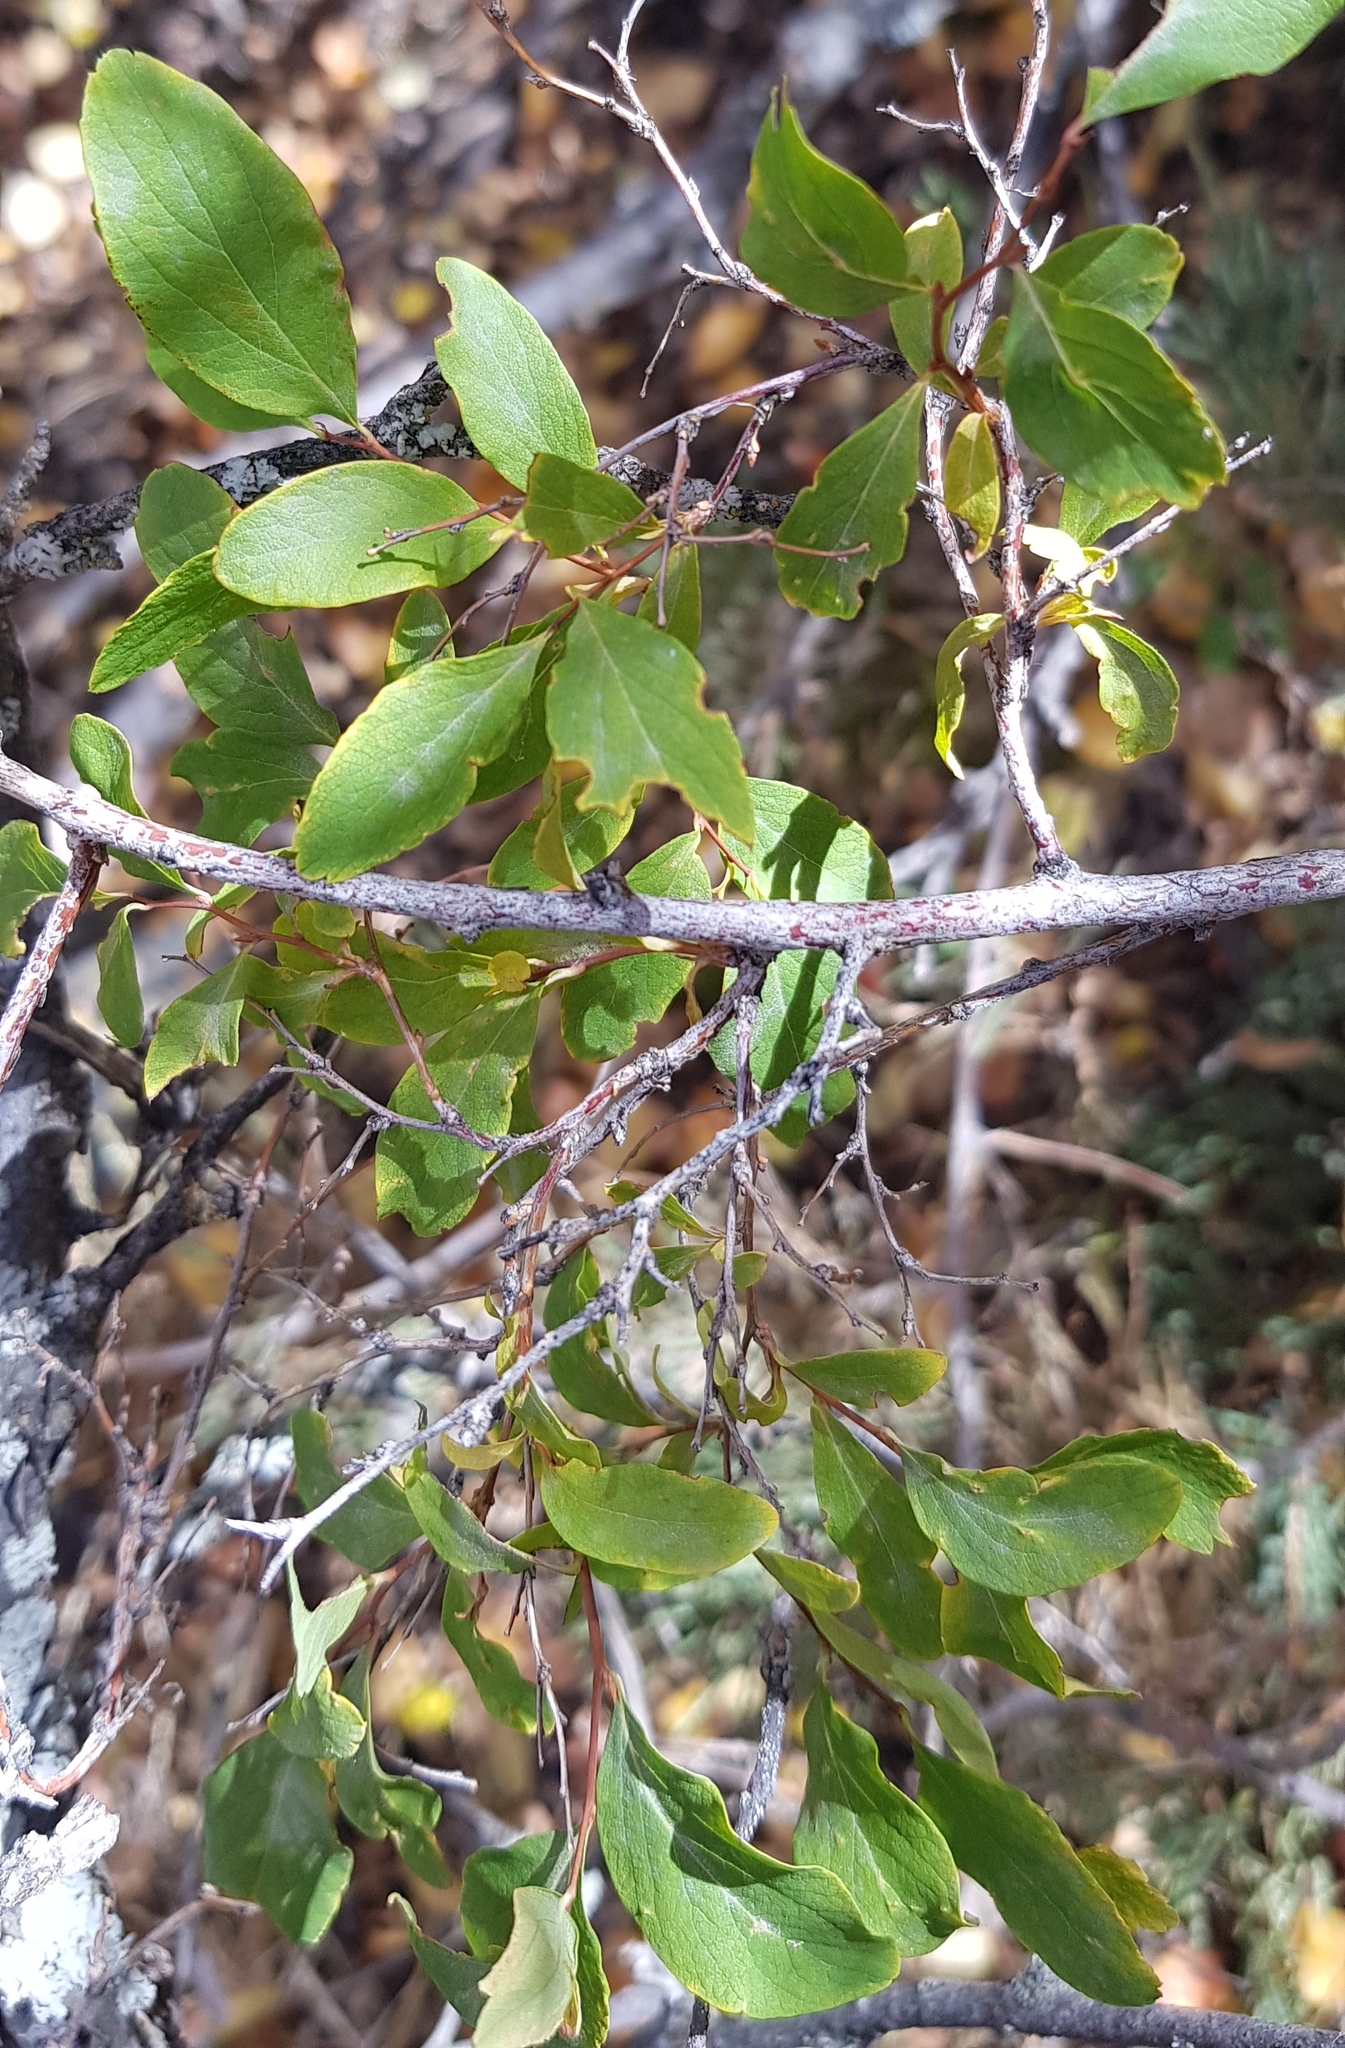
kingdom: Plantae
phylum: Tracheophyta
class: Magnoliopsida
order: Rosales
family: Rosaceae
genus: Spiraea
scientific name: Spiraea media
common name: Russian spiraea
